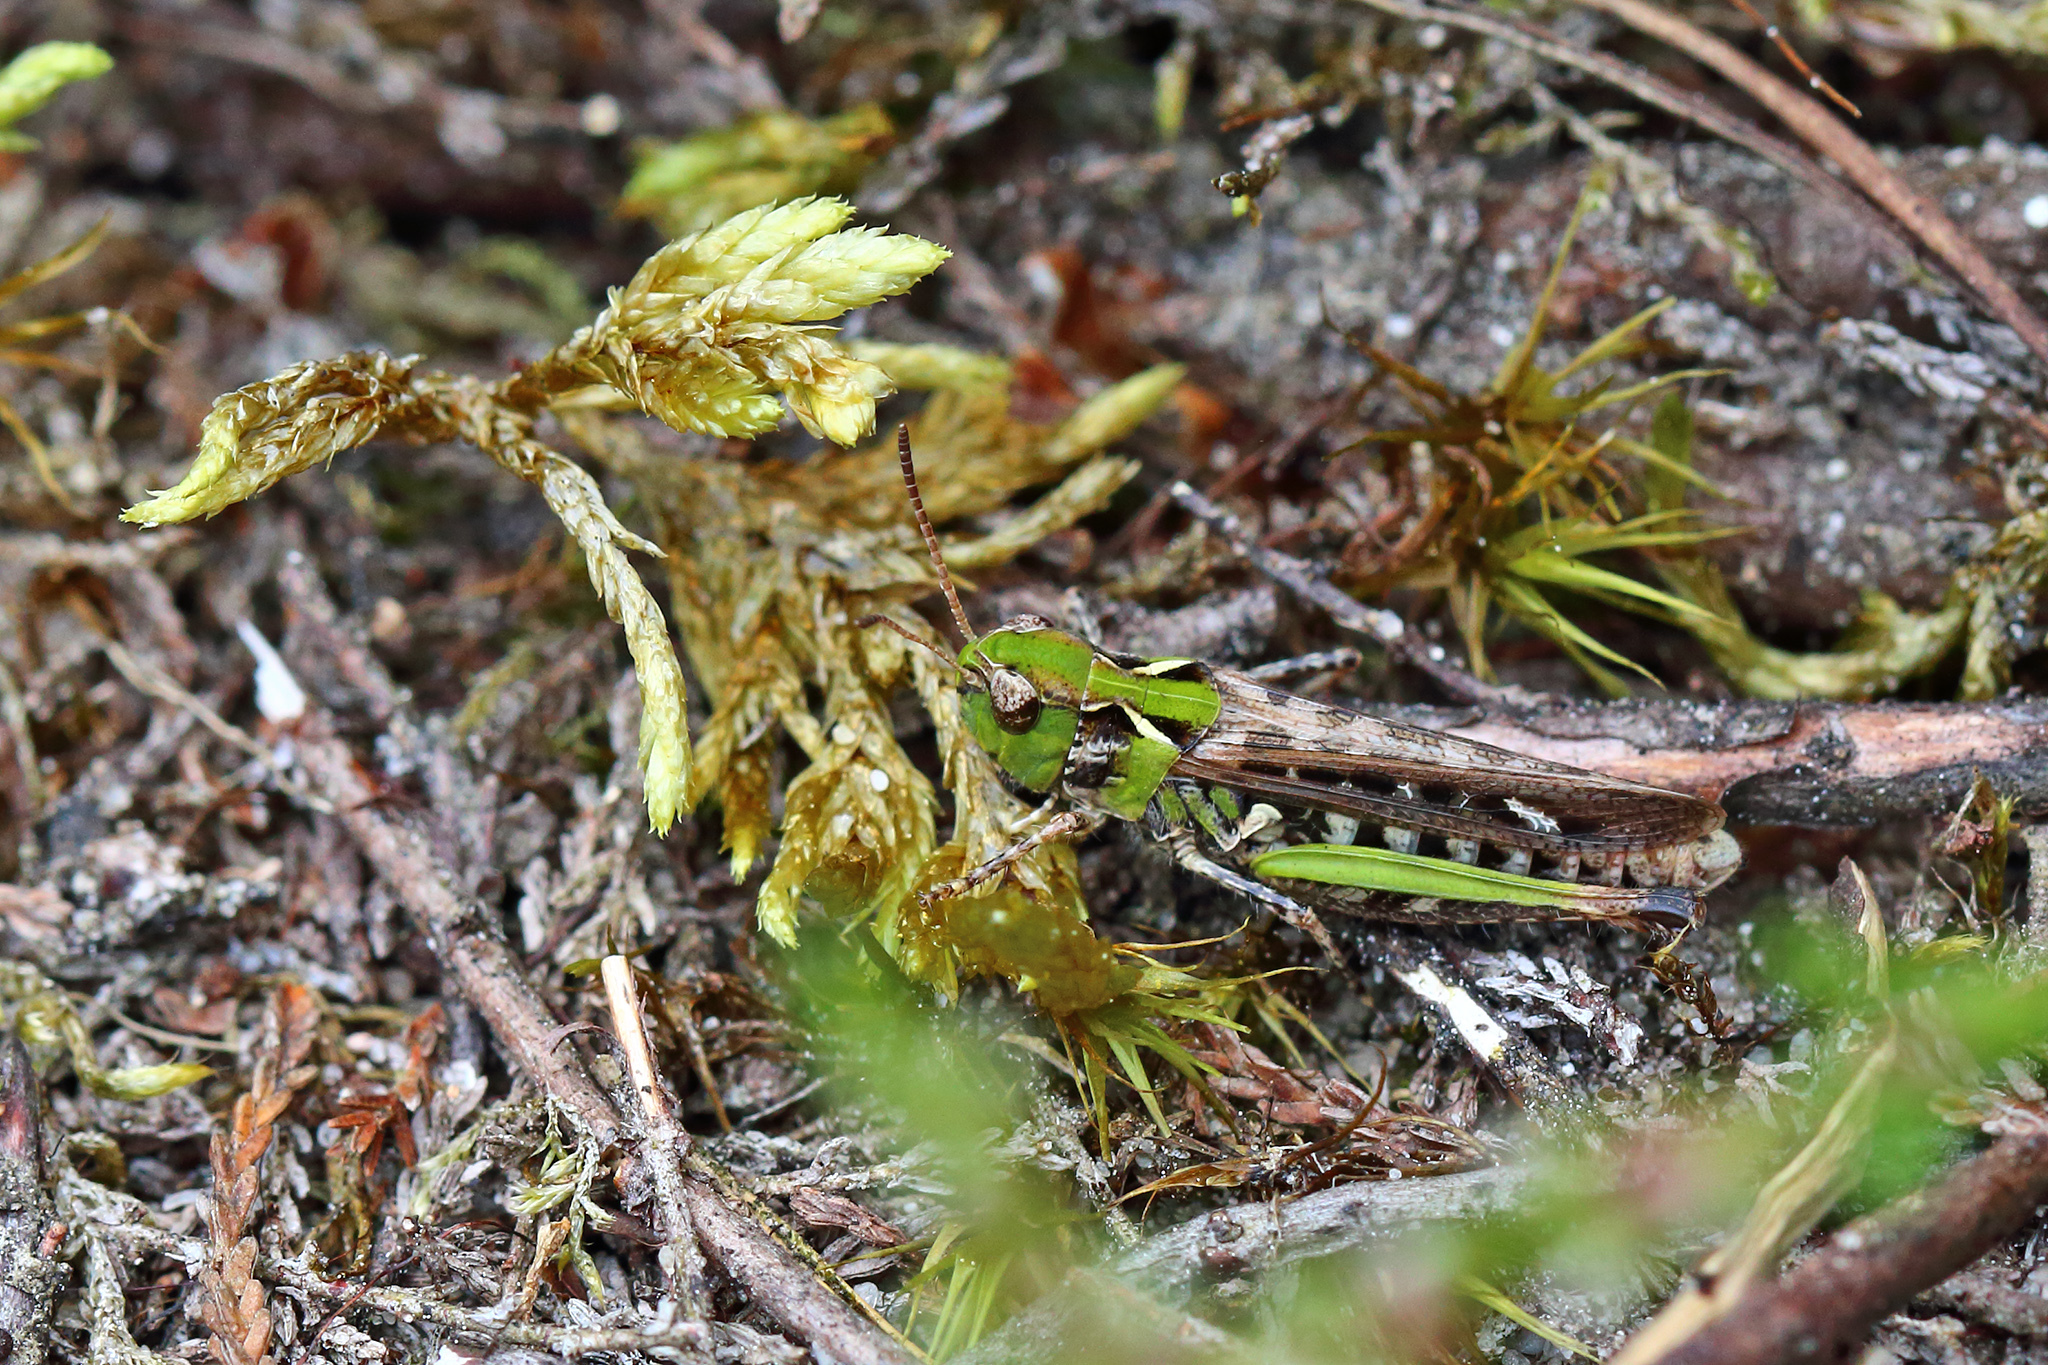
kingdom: Animalia
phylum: Arthropoda
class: Insecta
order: Orthoptera
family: Acrididae
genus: Myrmeleotettix
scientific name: Myrmeleotettix maculatus
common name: Mottled grasshopper
